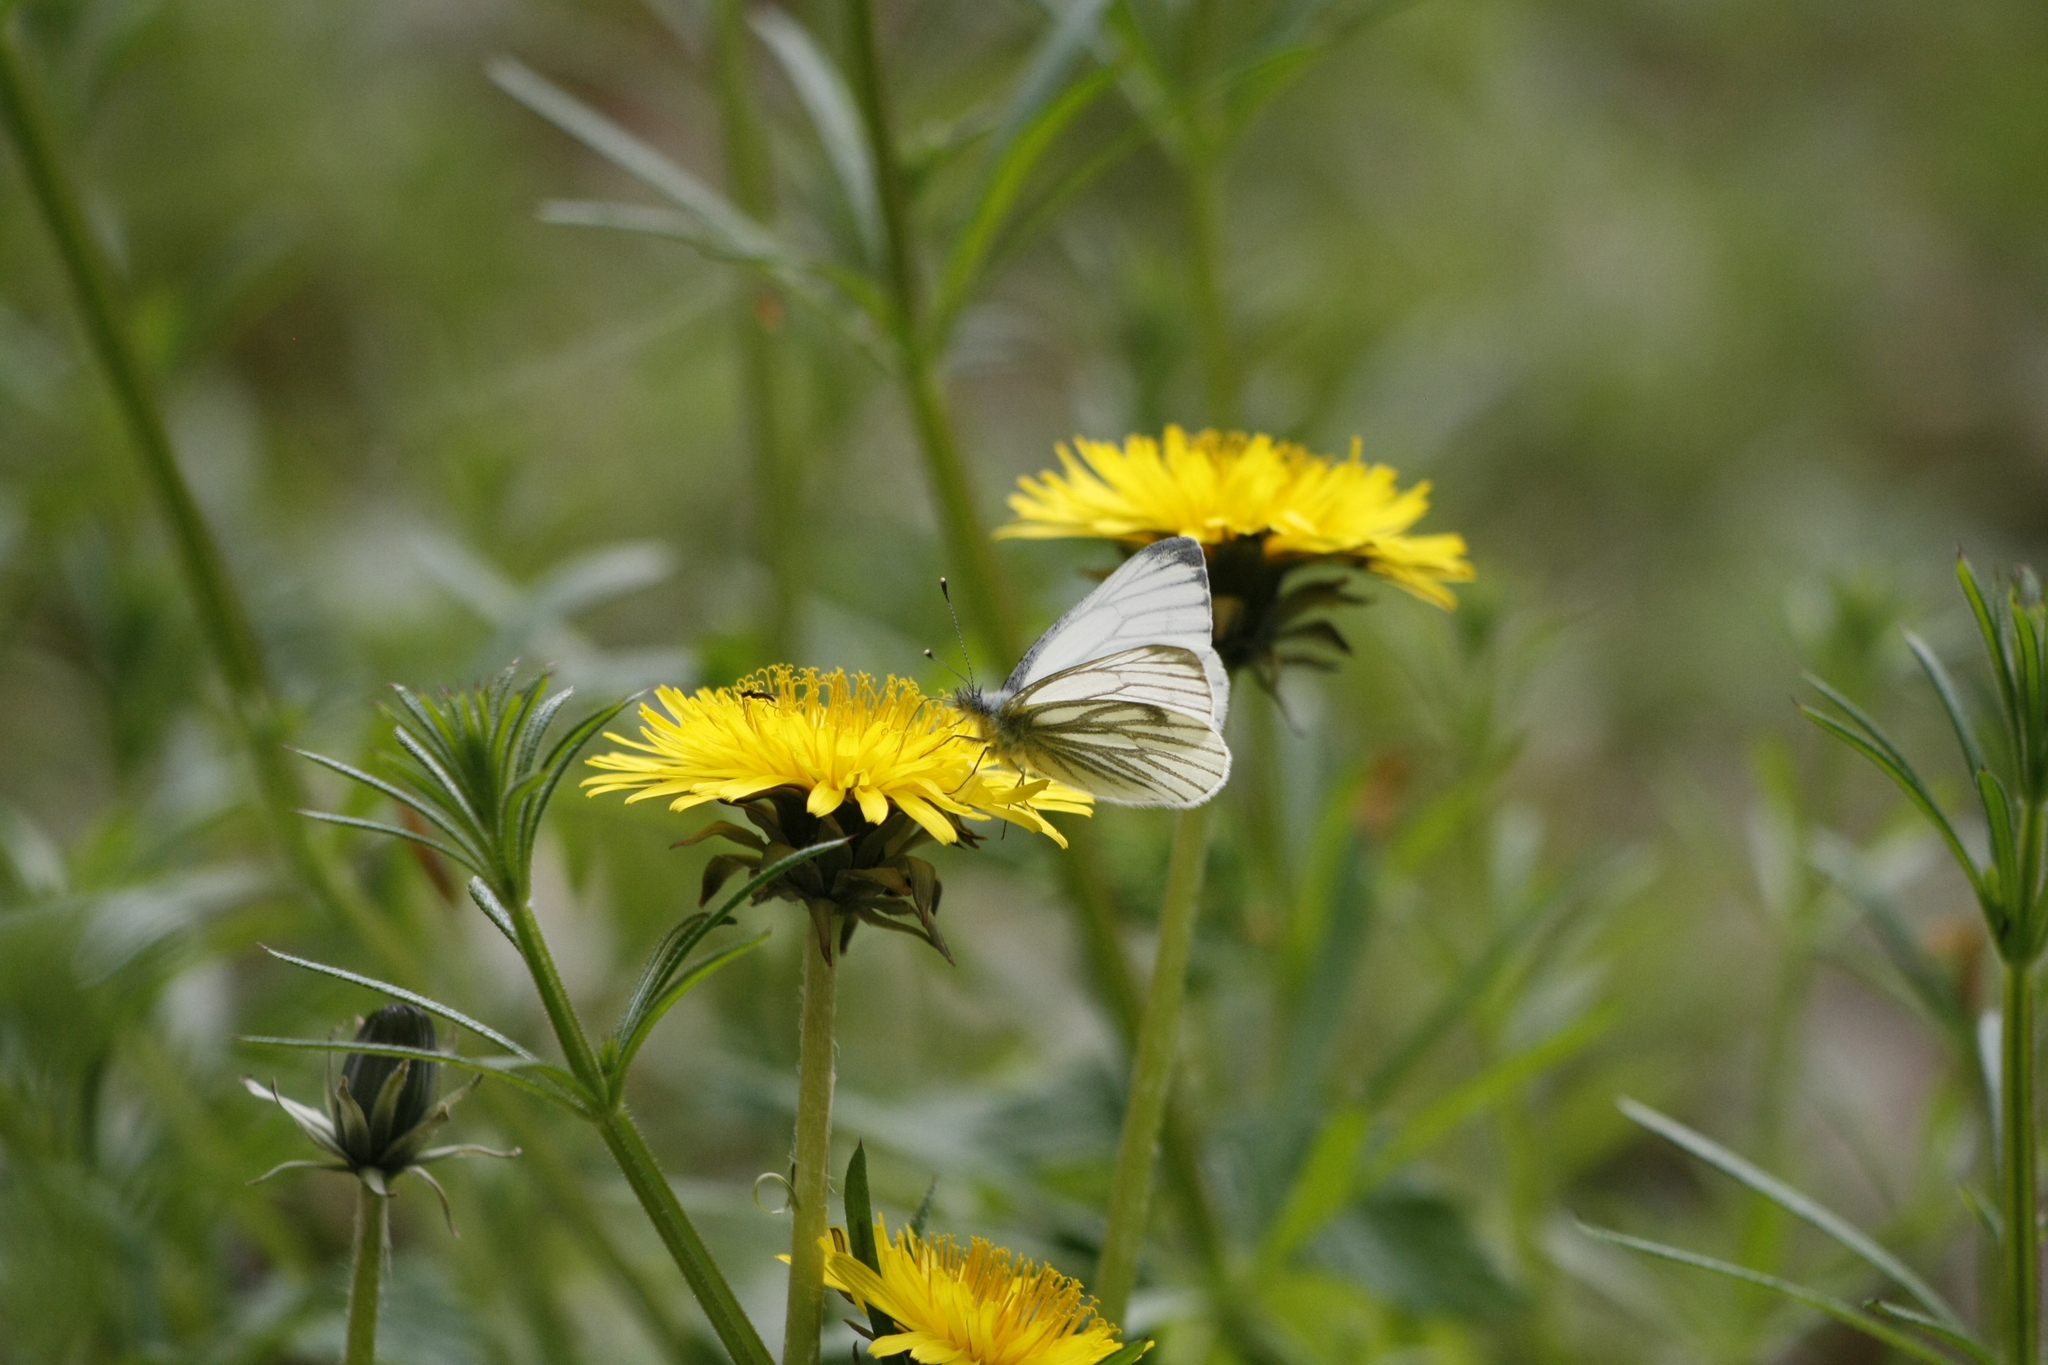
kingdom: Animalia
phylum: Arthropoda
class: Insecta
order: Lepidoptera
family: Pieridae
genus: Pieris
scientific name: Pieris napi
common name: Green-veined white
